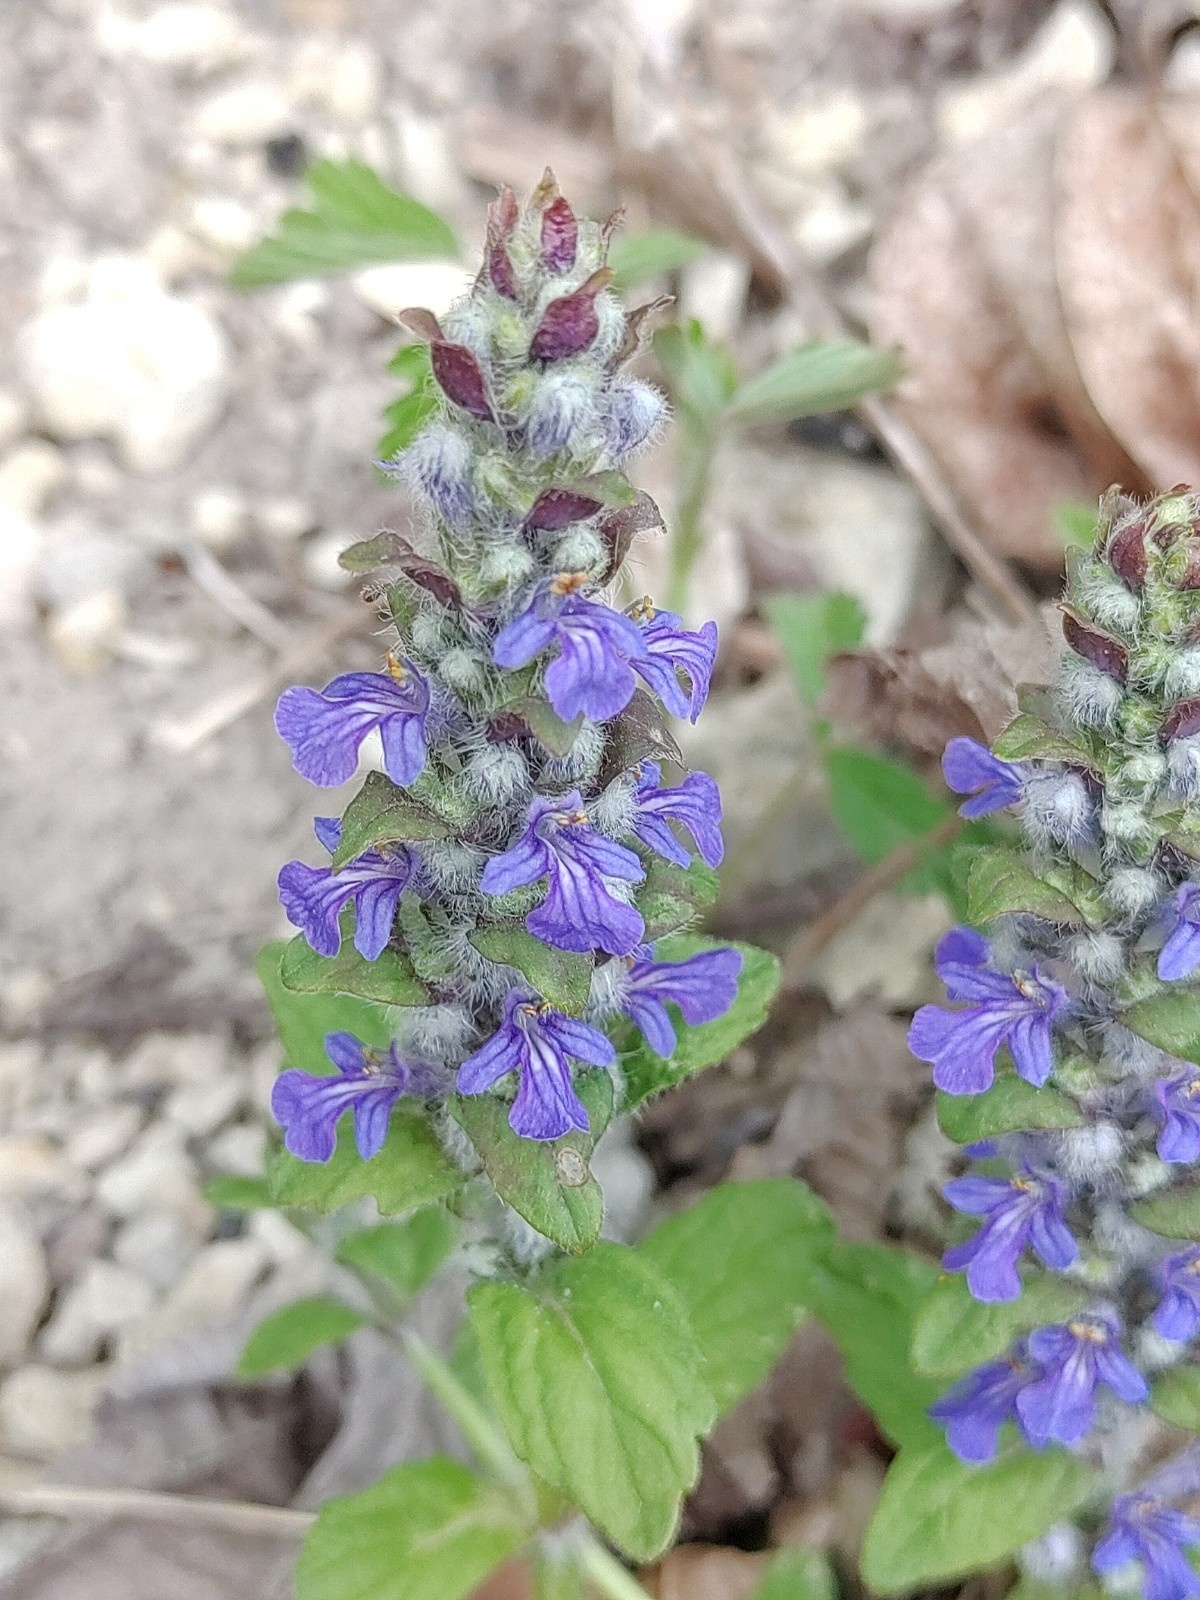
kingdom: Plantae
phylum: Tracheophyta
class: Magnoliopsida
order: Lamiales
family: Lamiaceae
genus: Ajuga
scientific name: Ajuga reptans
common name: Bugle
